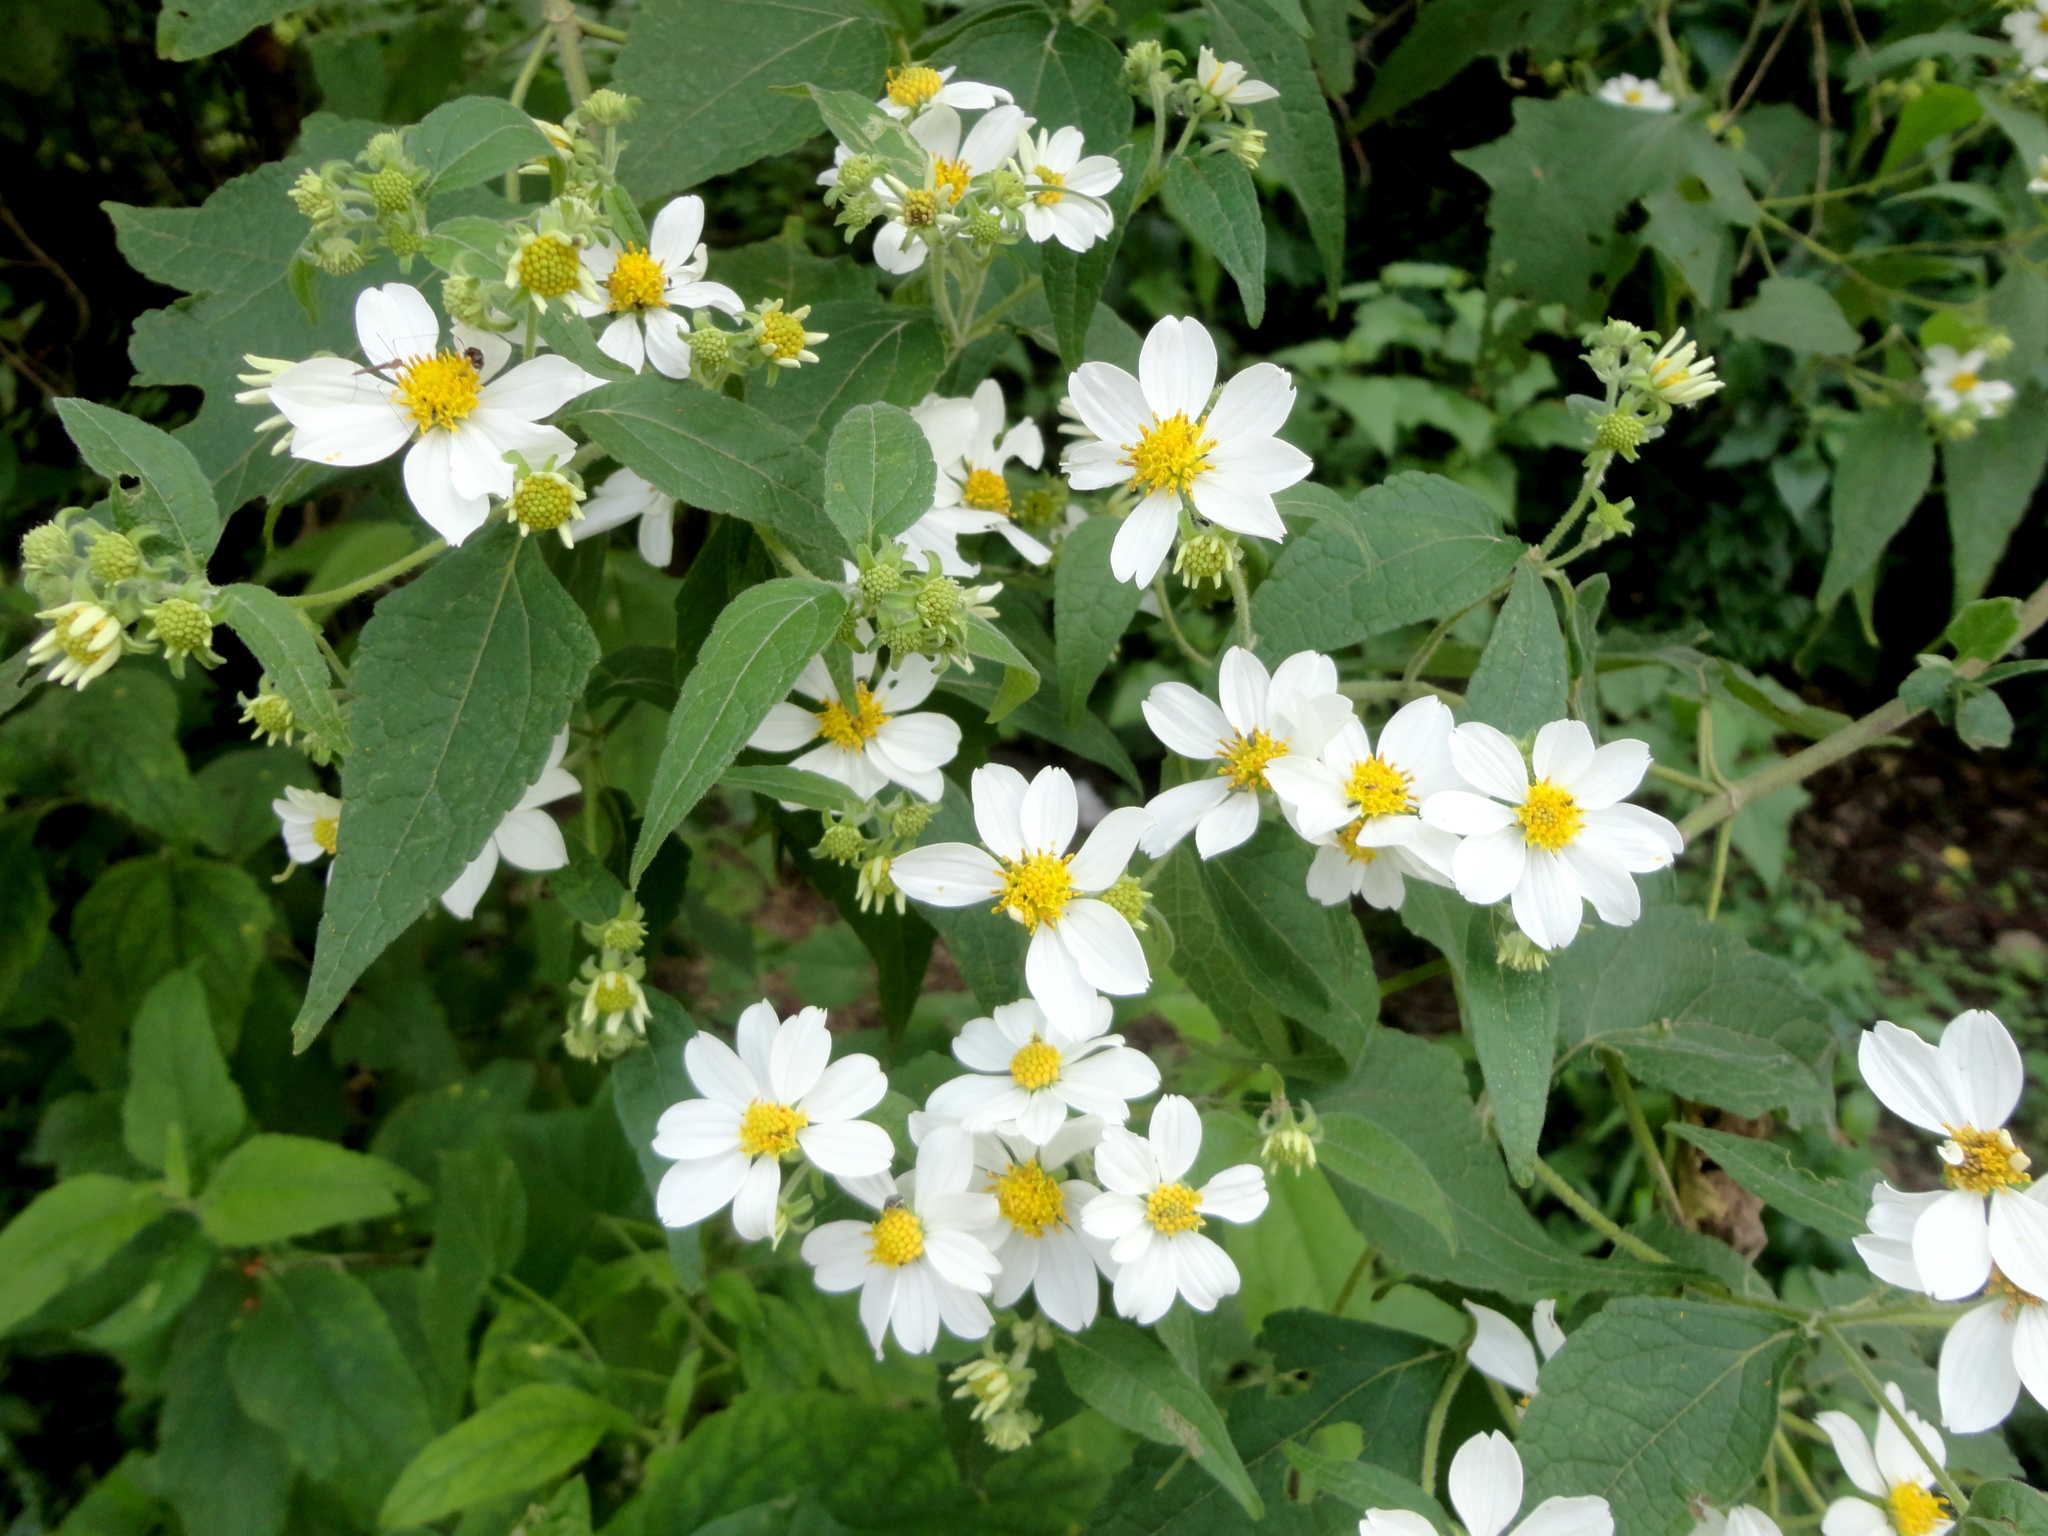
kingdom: Plantae
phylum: Tracheophyta
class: Magnoliopsida
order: Asterales
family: Asteraceae
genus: Montanoa
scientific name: Montanoa leucantha
